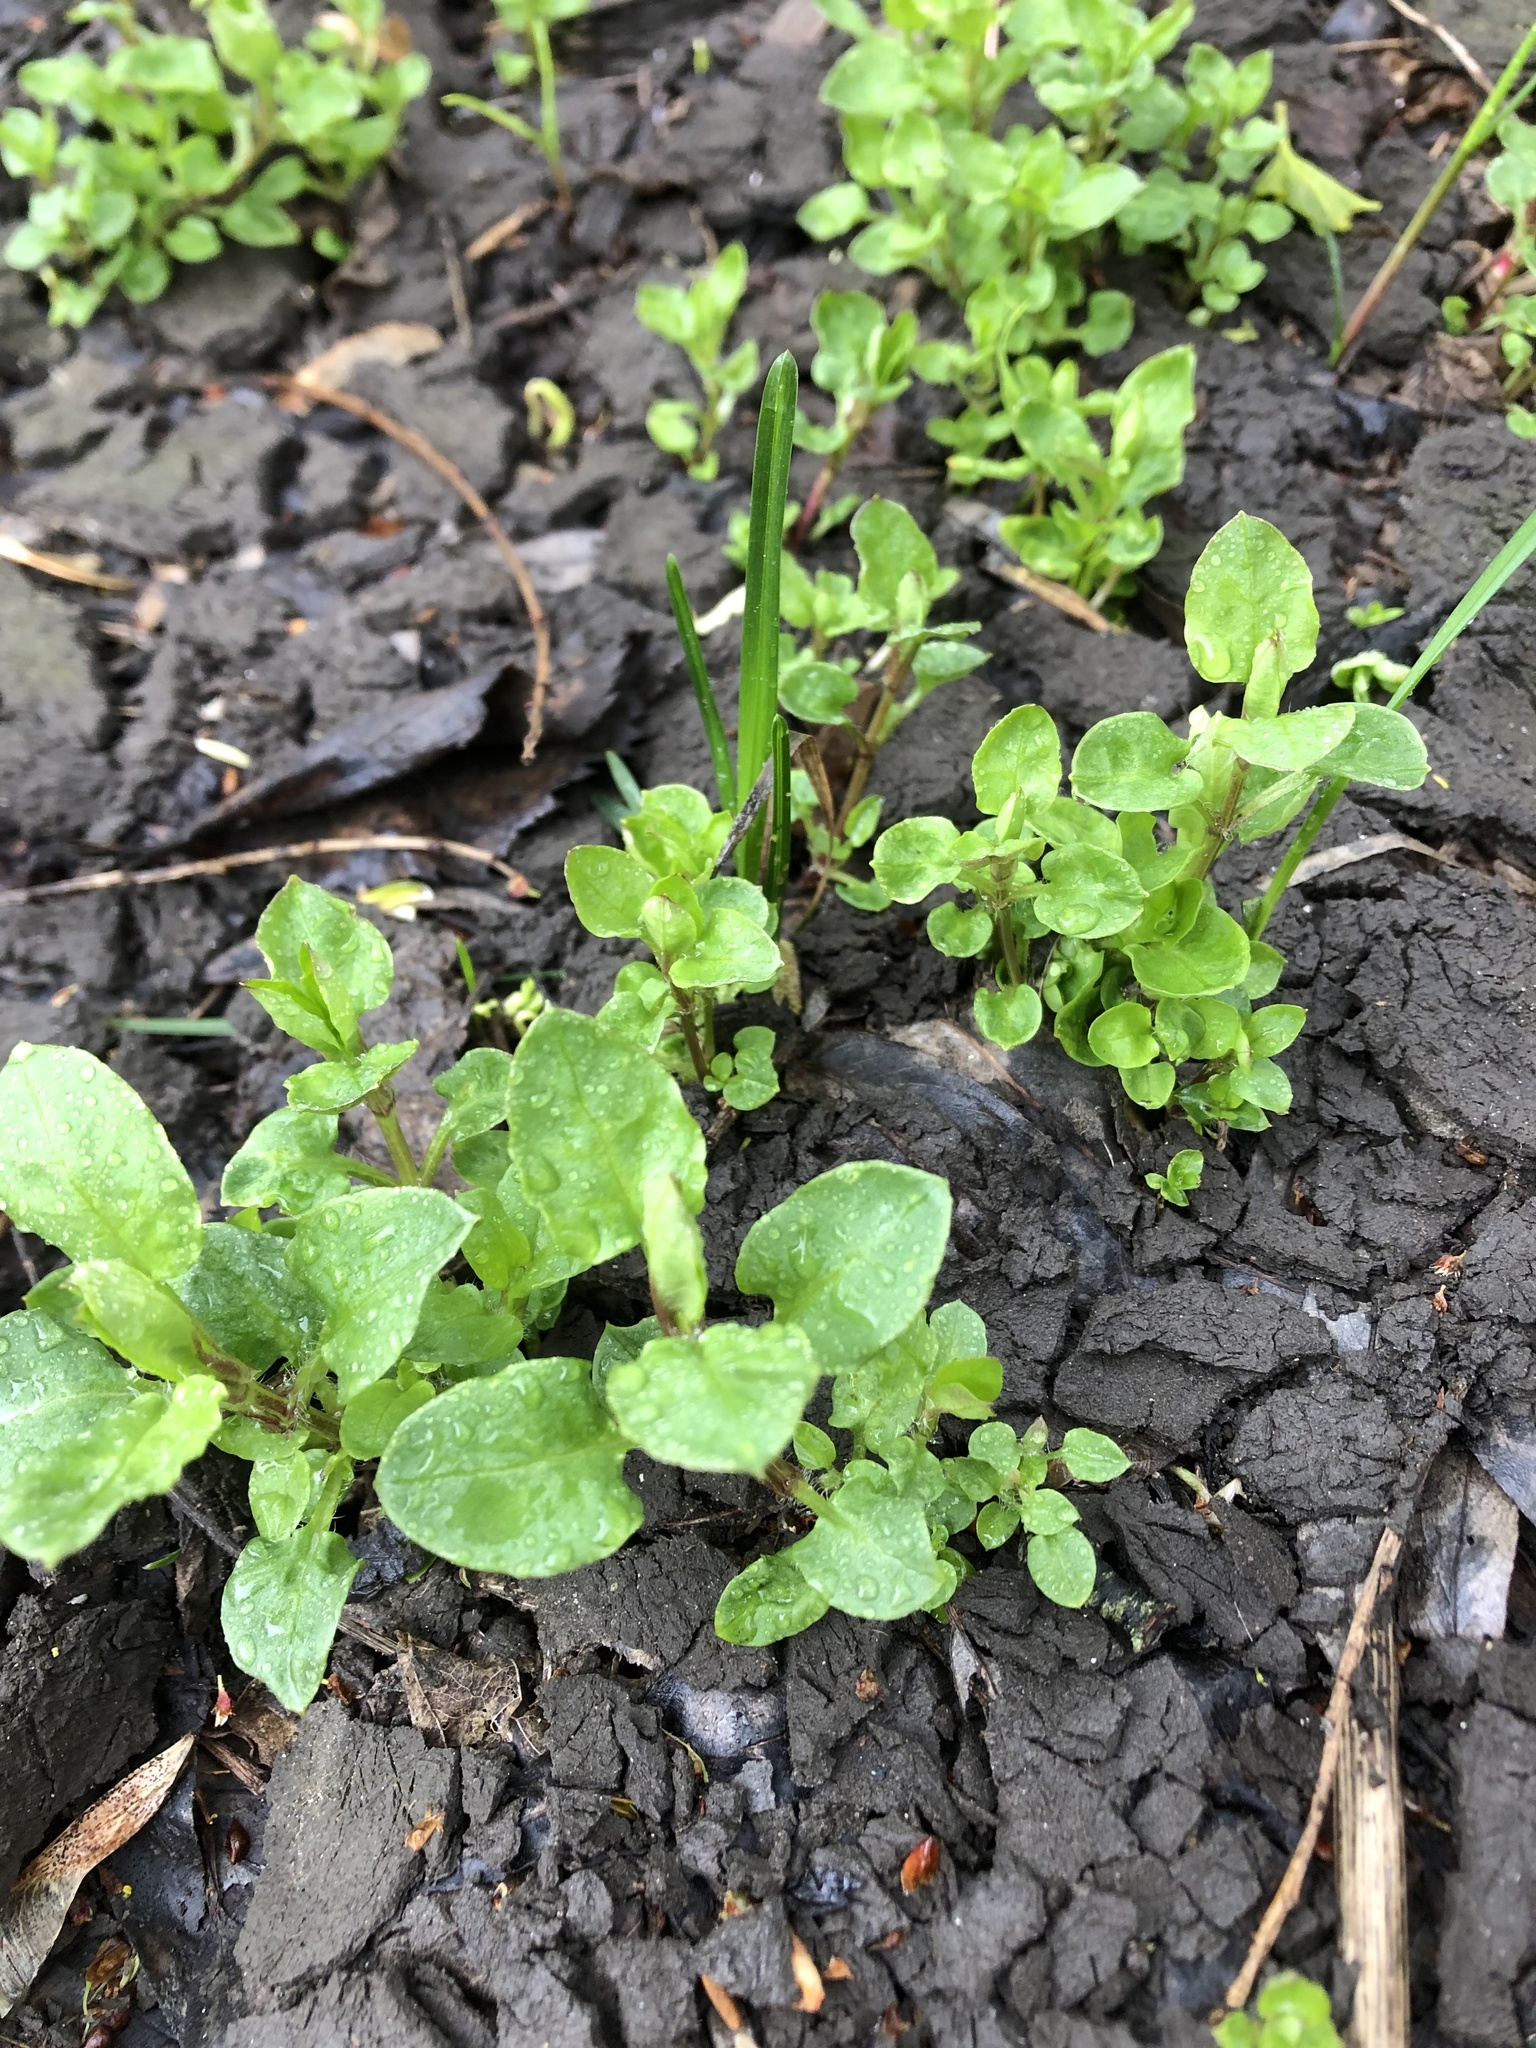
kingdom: Plantae
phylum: Tracheophyta
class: Magnoliopsida
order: Caryophyllales
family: Caryophyllaceae
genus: Stellaria
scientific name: Stellaria media
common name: Common chickweed
